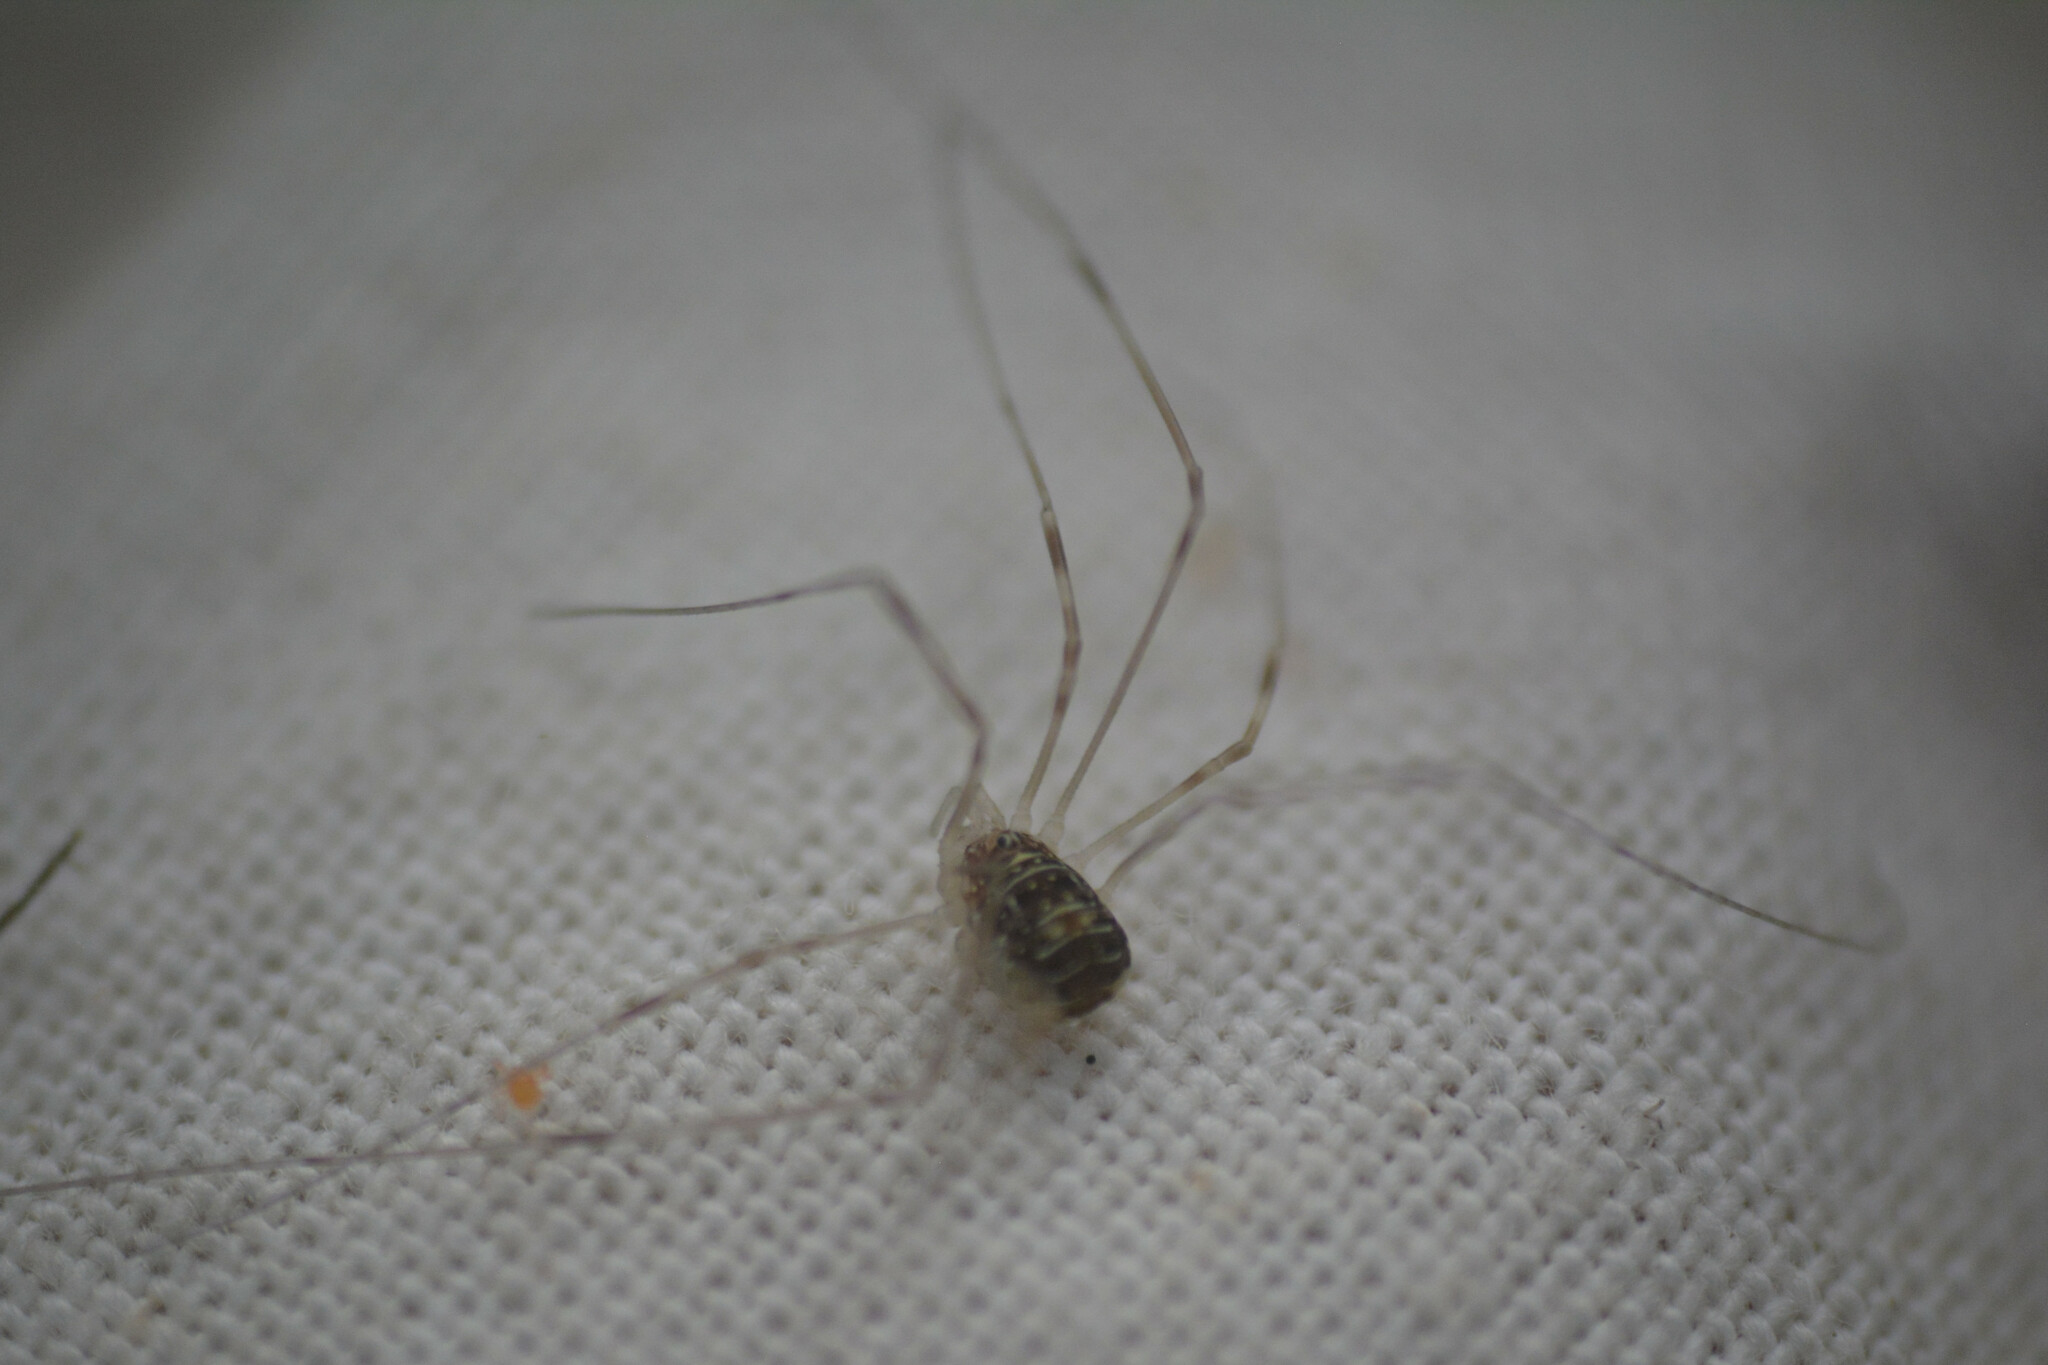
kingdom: Animalia
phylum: Arthropoda
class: Arachnida
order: Opiliones
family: Phalangiidae
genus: Opilio
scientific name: Opilio canestrinii
